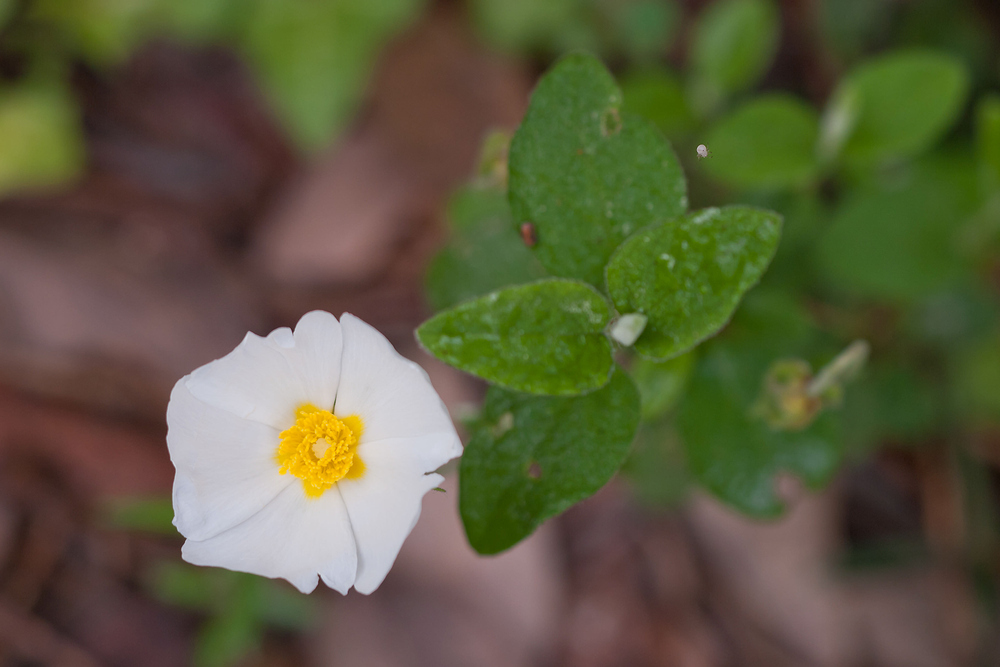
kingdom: Plantae
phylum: Tracheophyta
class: Magnoliopsida
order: Malvales
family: Cistaceae
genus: Cistus
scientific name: Cistus salviifolius
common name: Salvia cistus
